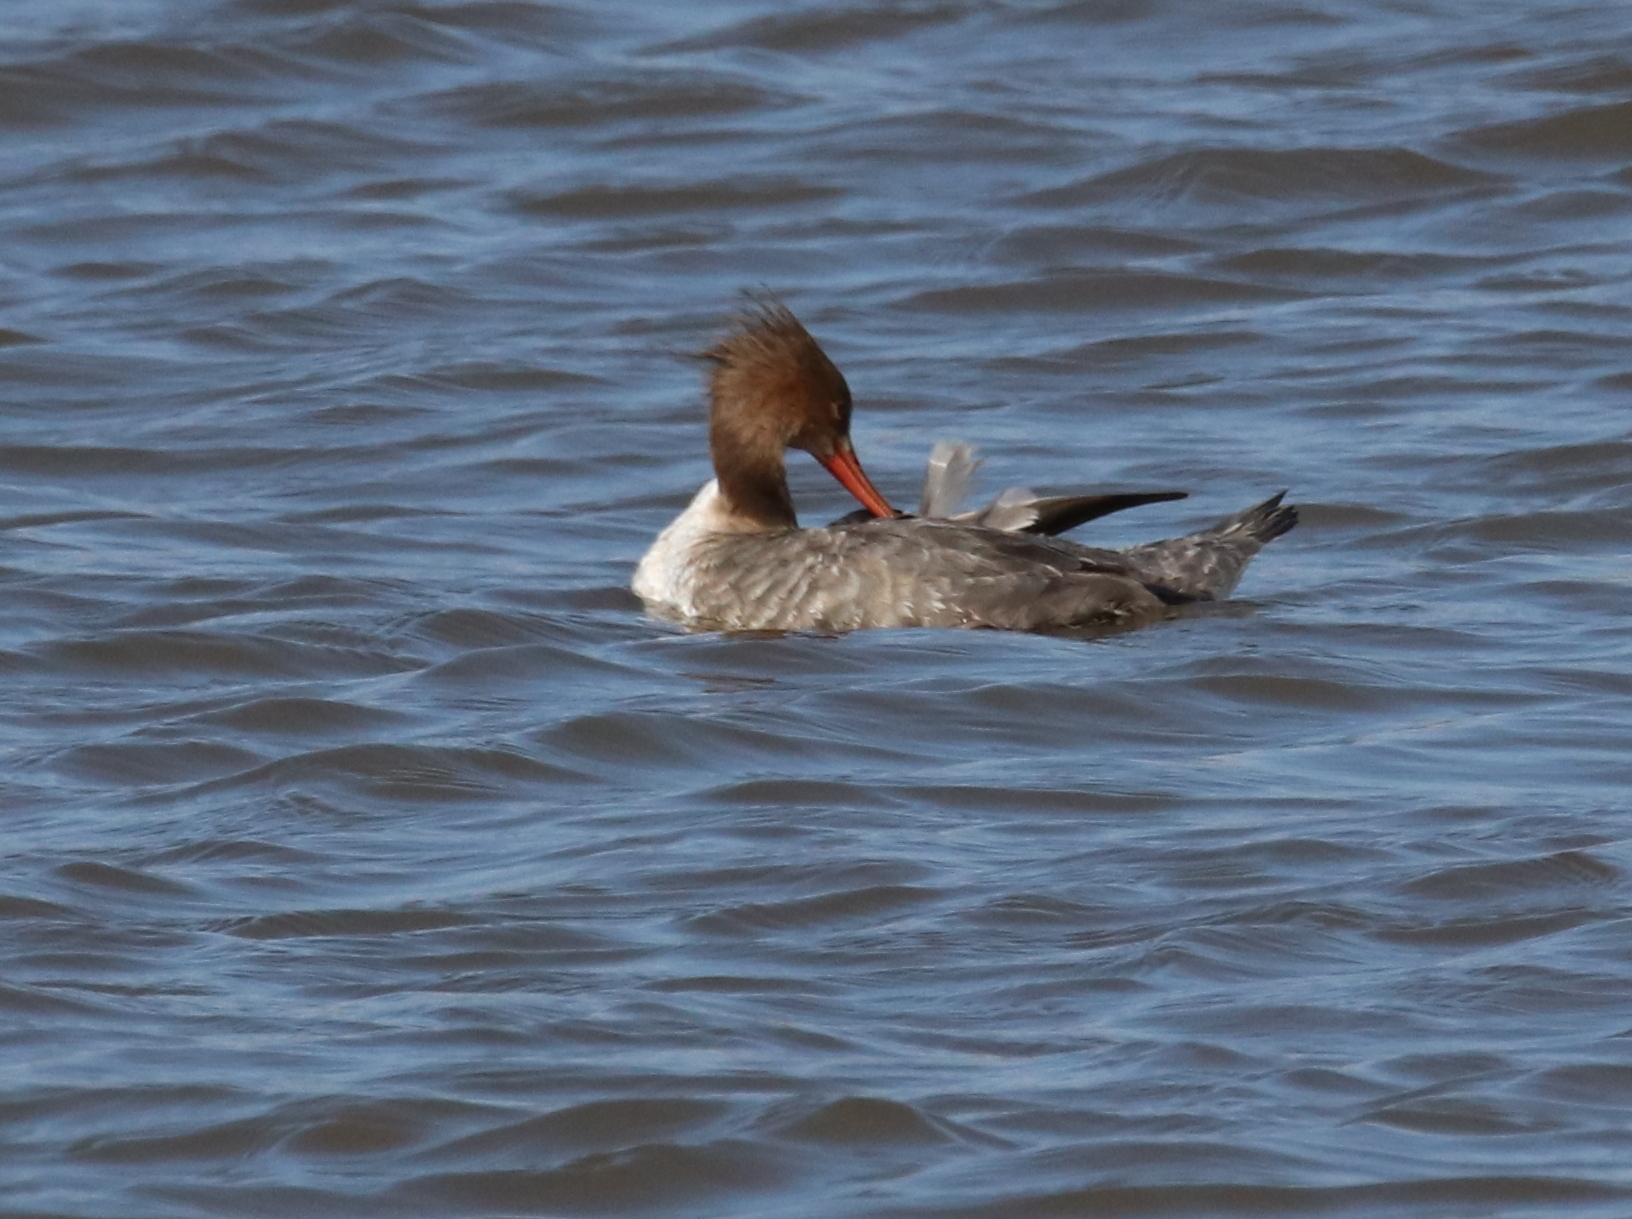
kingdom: Animalia
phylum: Chordata
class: Aves
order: Anseriformes
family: Anatidae
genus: Mergus
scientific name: Mergus serrator
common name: Red-breasted merganser
